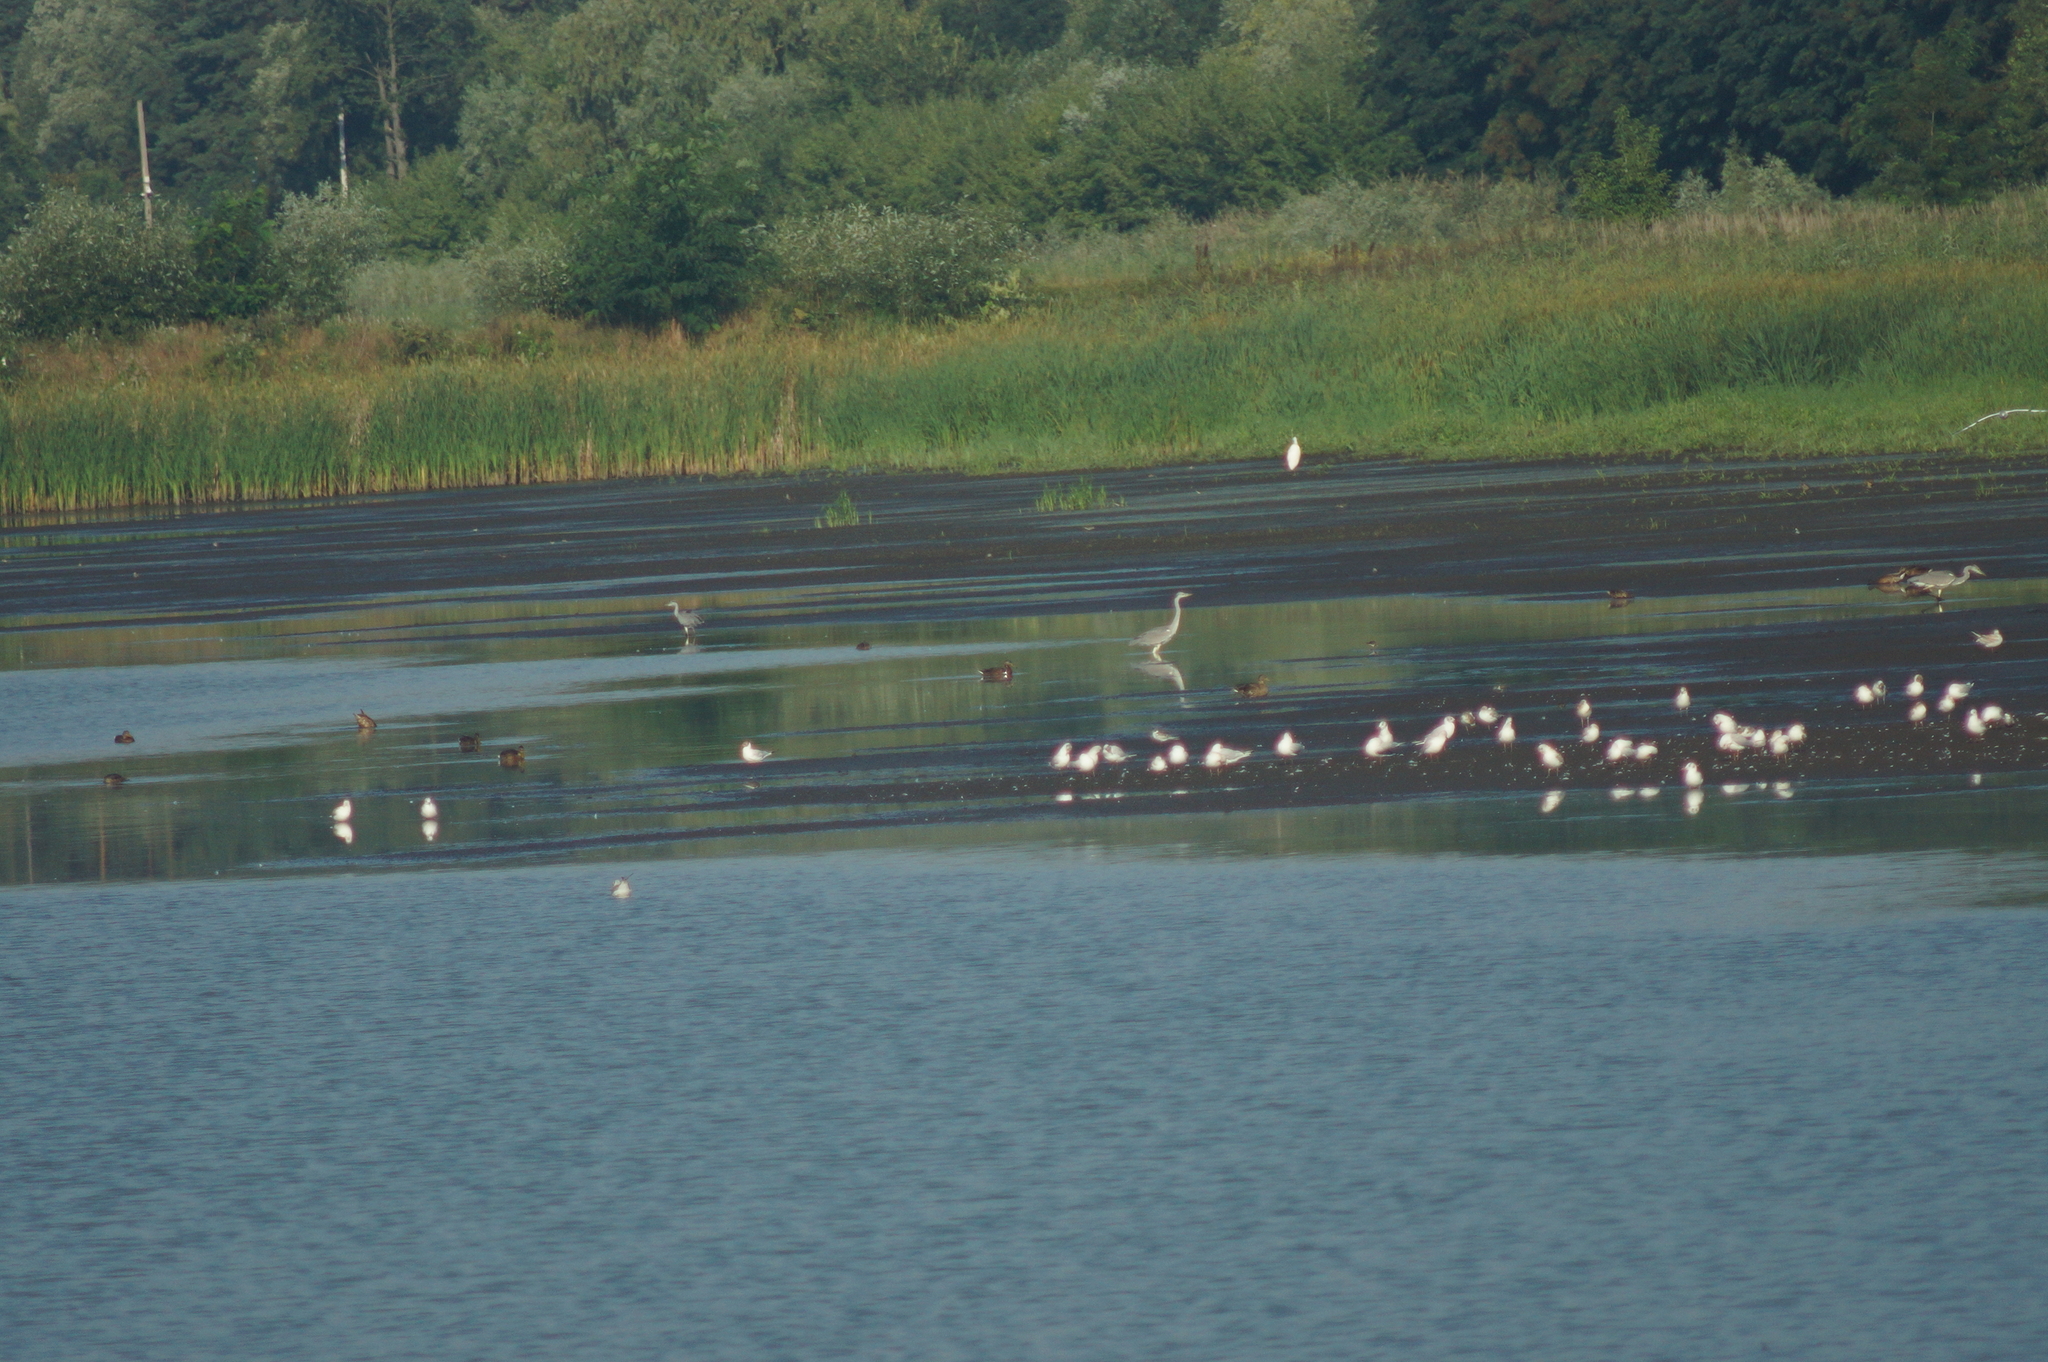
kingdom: Animalia
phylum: Chordata
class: Aves
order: Pelecaniformes
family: Ardeidae
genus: Ardea
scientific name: Ardea cinerea
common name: Grey heron
